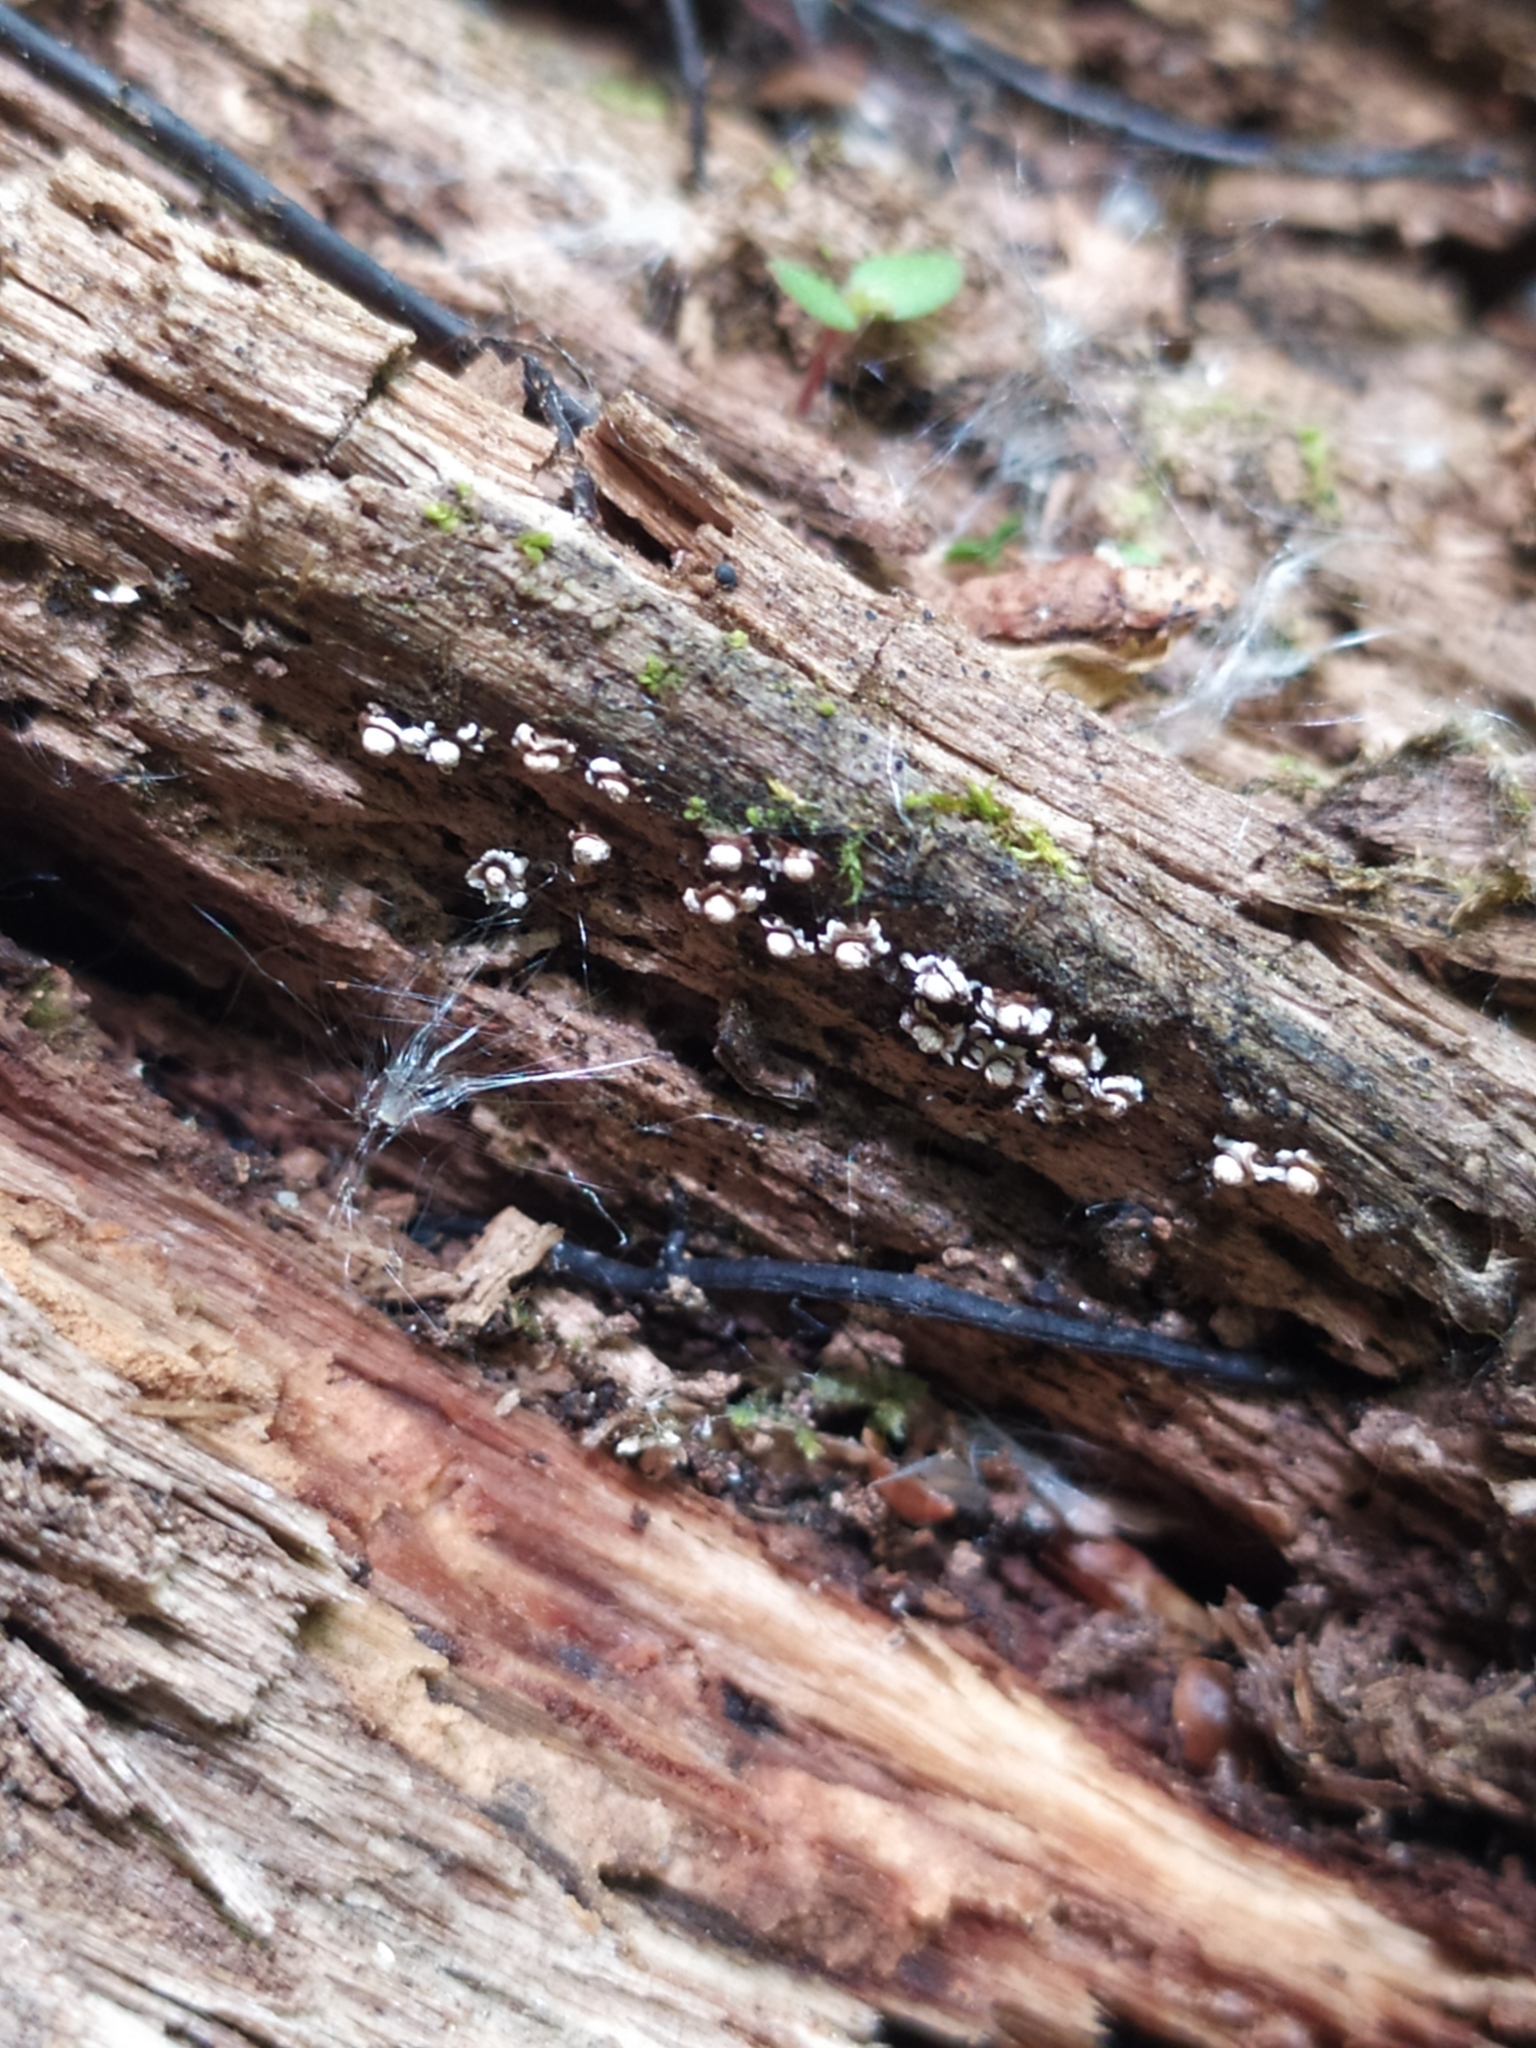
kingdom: Protozoa
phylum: Mycetozoa
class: Myxomycetes
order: Physarales
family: Didymiaceae
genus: Diderma
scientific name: Diderma radiatum
